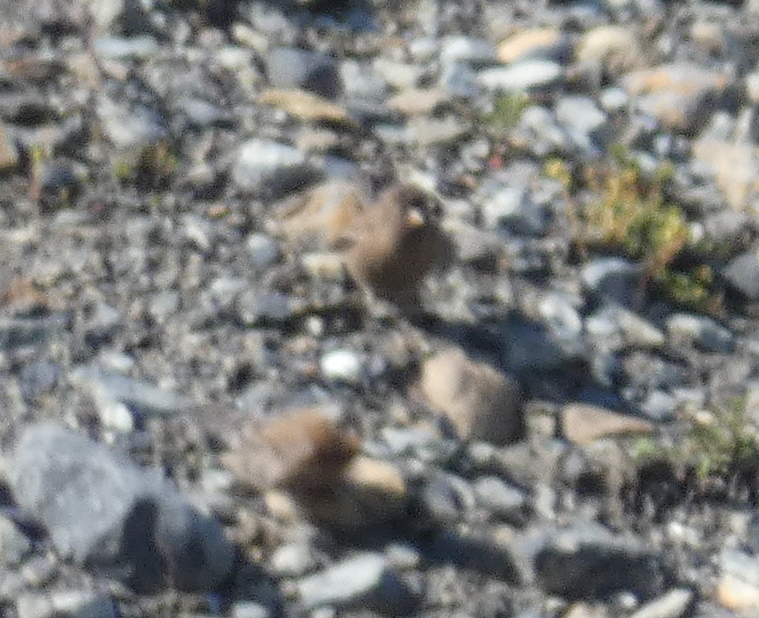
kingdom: Animalia
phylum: Chordata
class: Aves
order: Passeriformes
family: Fringillidae
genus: Leucosticte
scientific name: Leucosticte tephrocotis
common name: Gray-crowned rosy-finch
